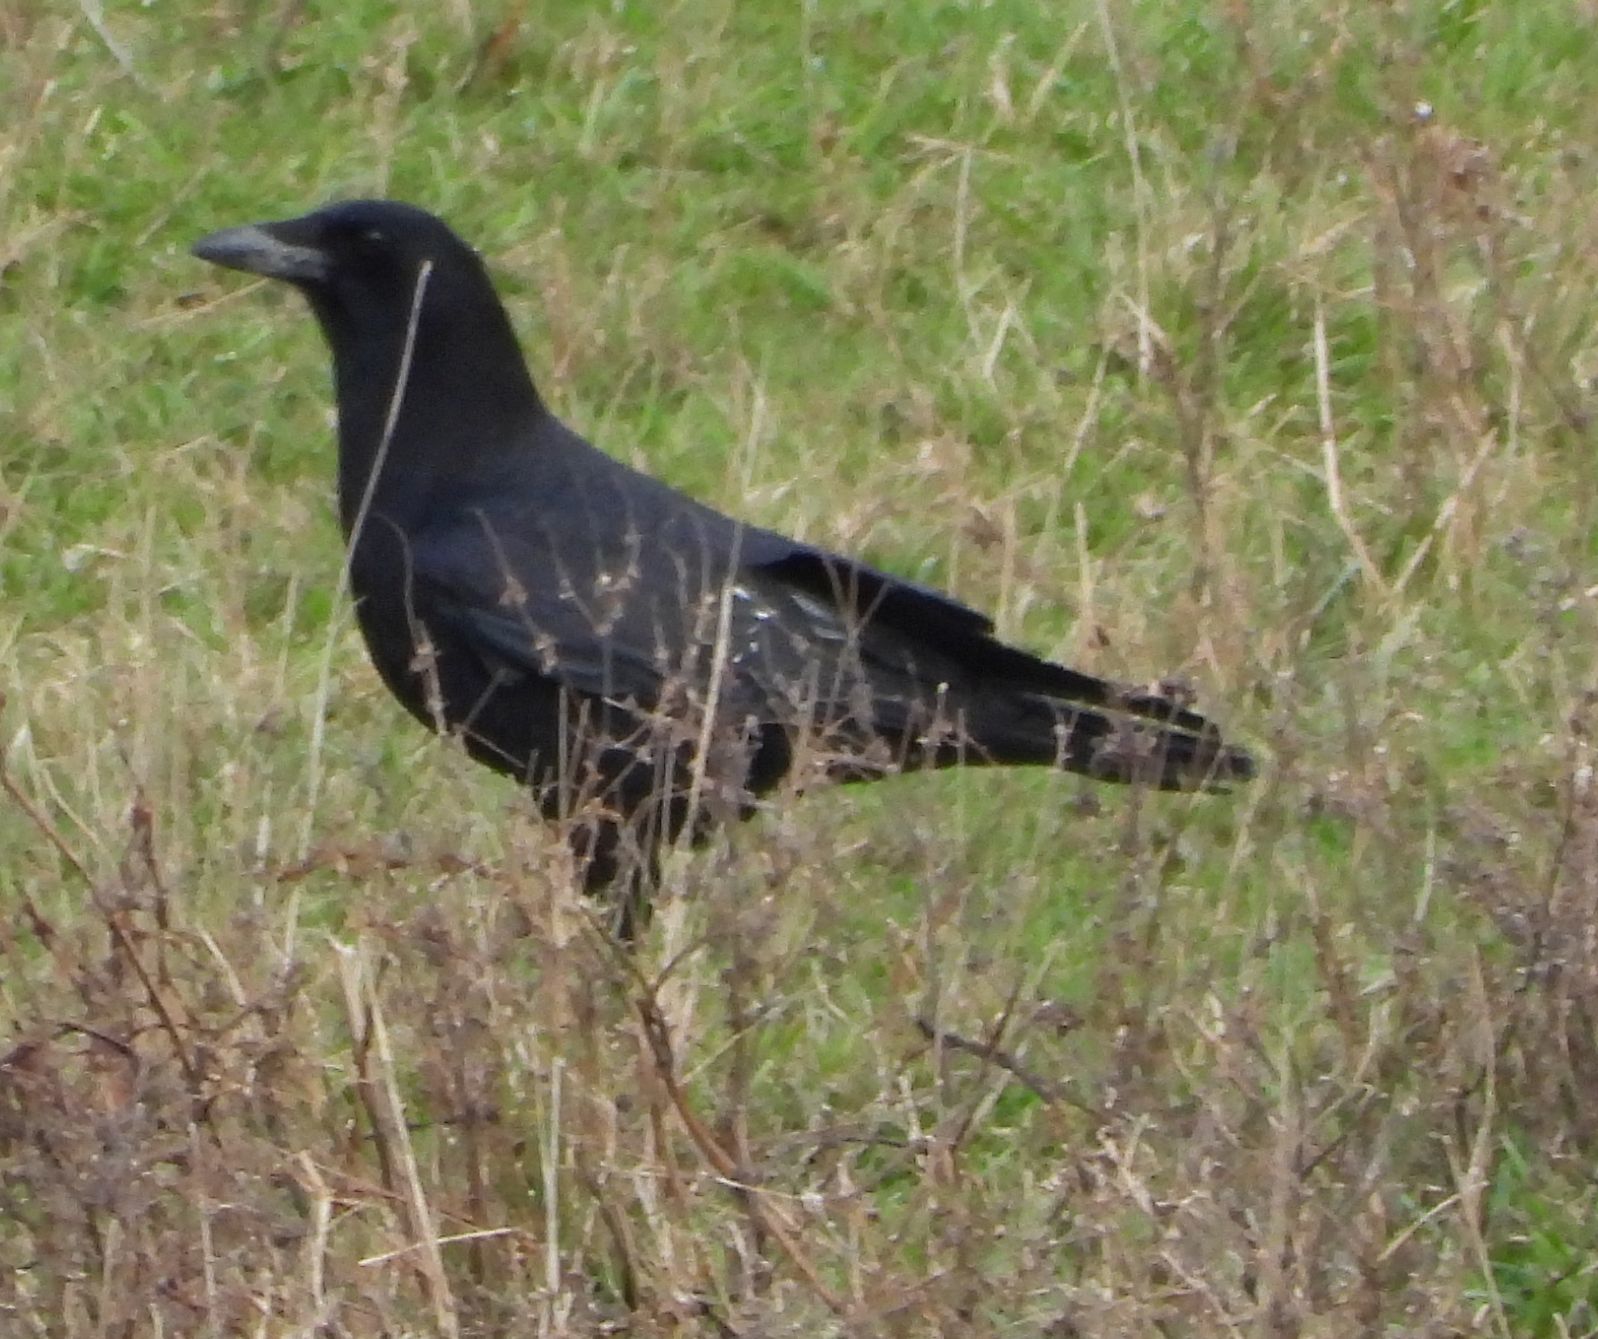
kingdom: Animalia
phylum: Chordata
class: Aves
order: Passeriformes
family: Corvidae
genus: Corvus
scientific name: Corvus brachyrhynchos
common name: American crow
